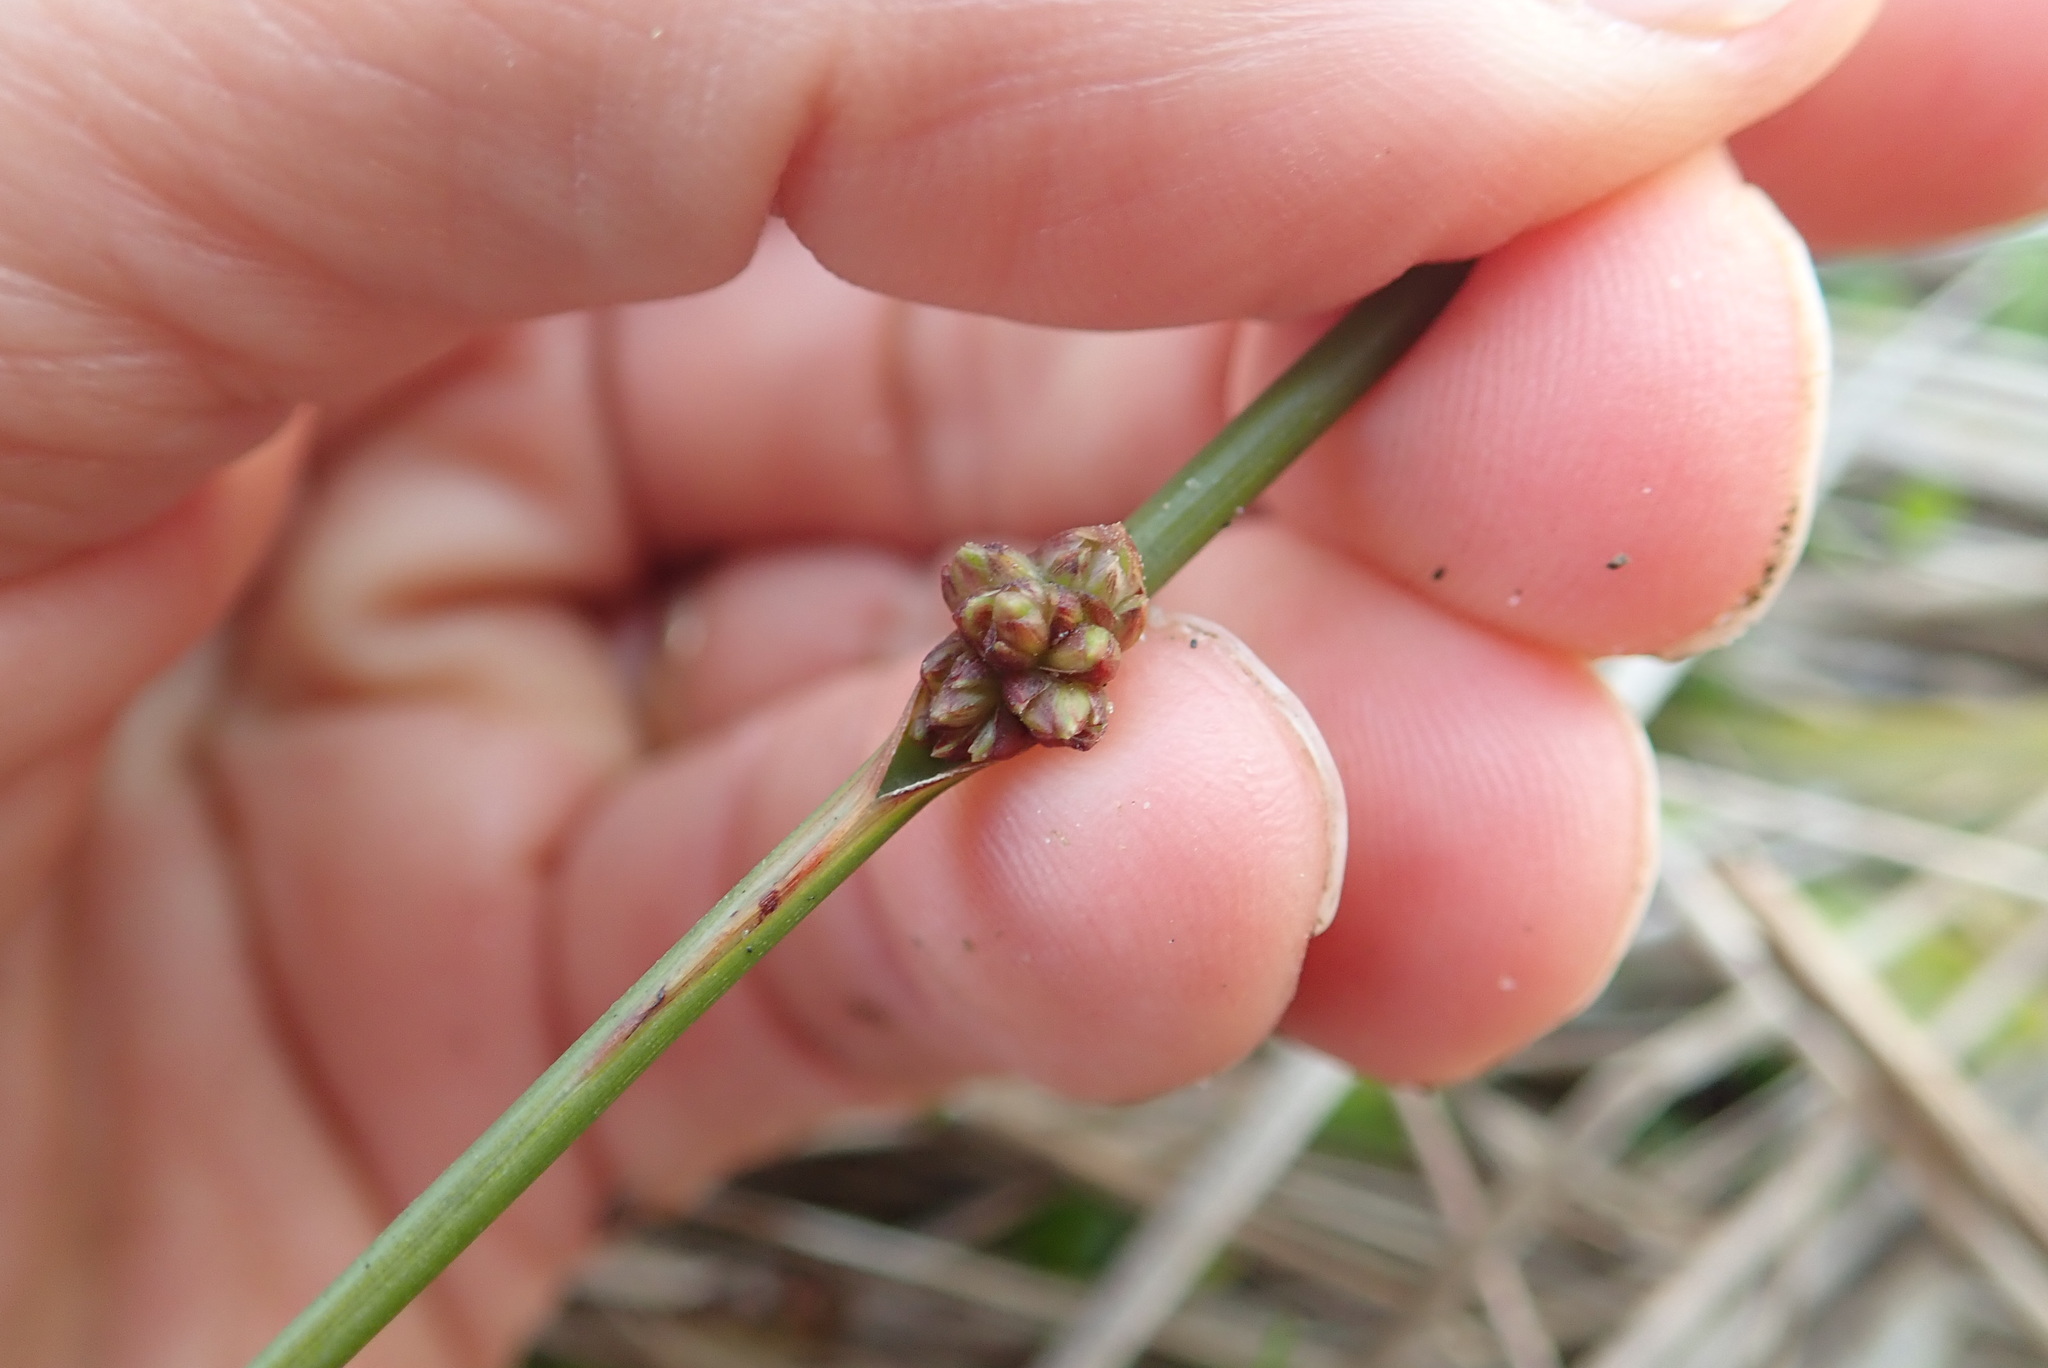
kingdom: Plantae
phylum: Tracheophyta
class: Liliopsida
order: Poales
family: Cyperaceae
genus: Ficinia
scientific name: Ficinia nodosa
